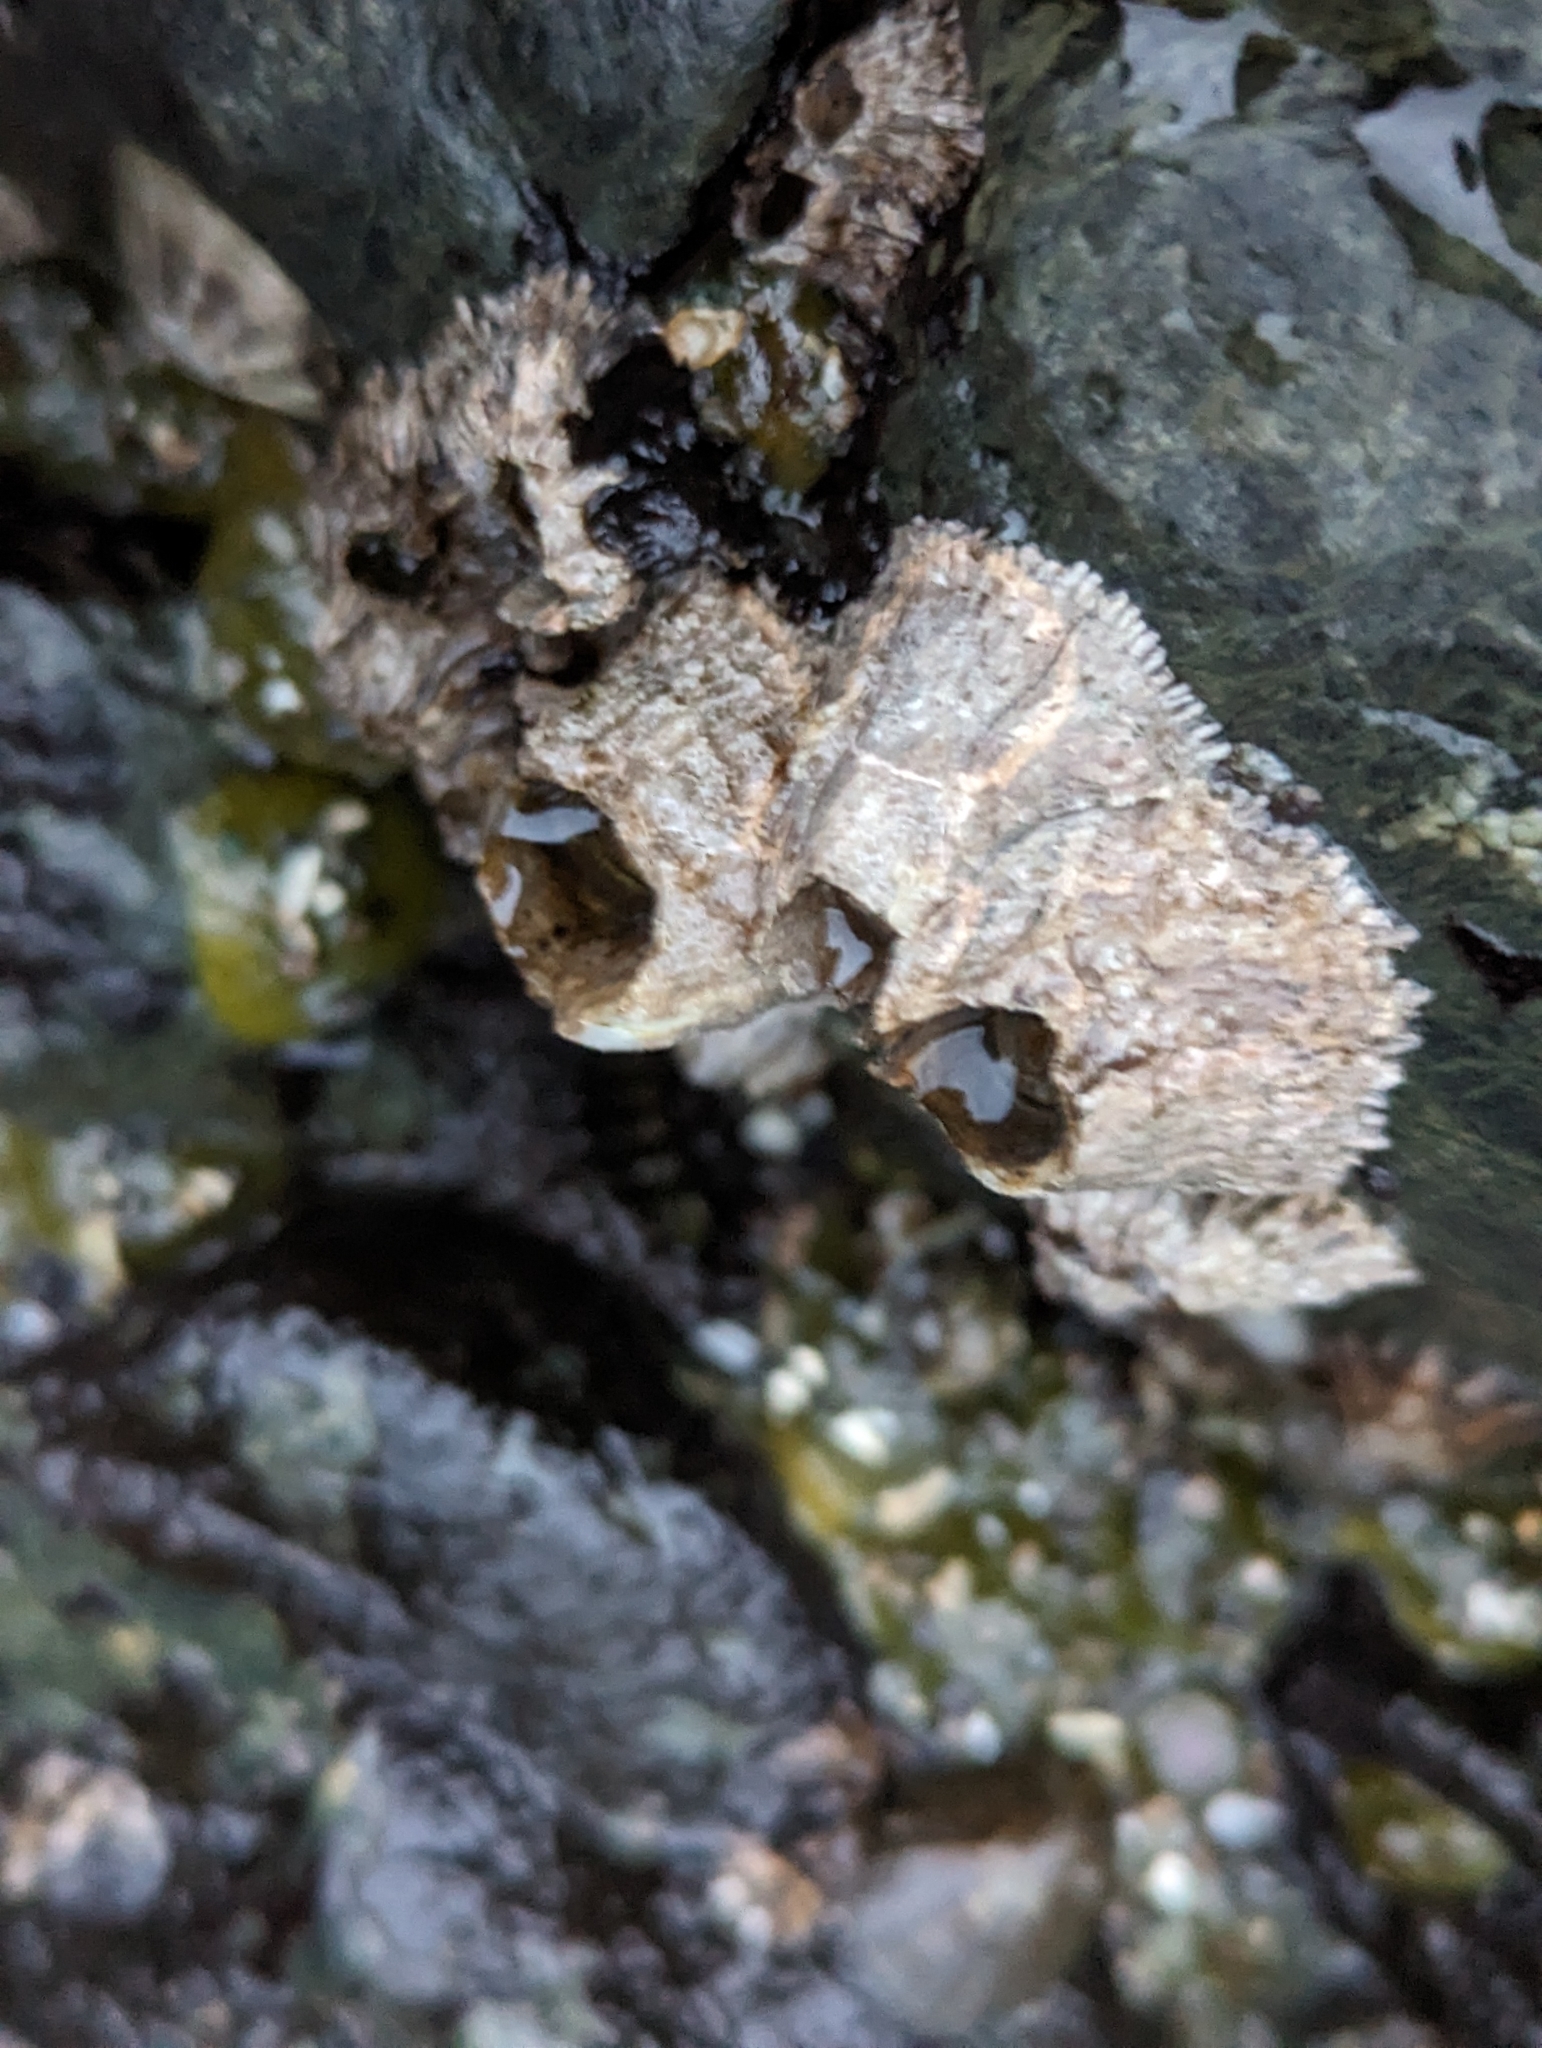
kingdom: Animalia
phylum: Arthropoda
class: Maxillopoda
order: Sessilia
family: Archaeobalanidae
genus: Semibalanus
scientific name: Semibalanus cariosus
